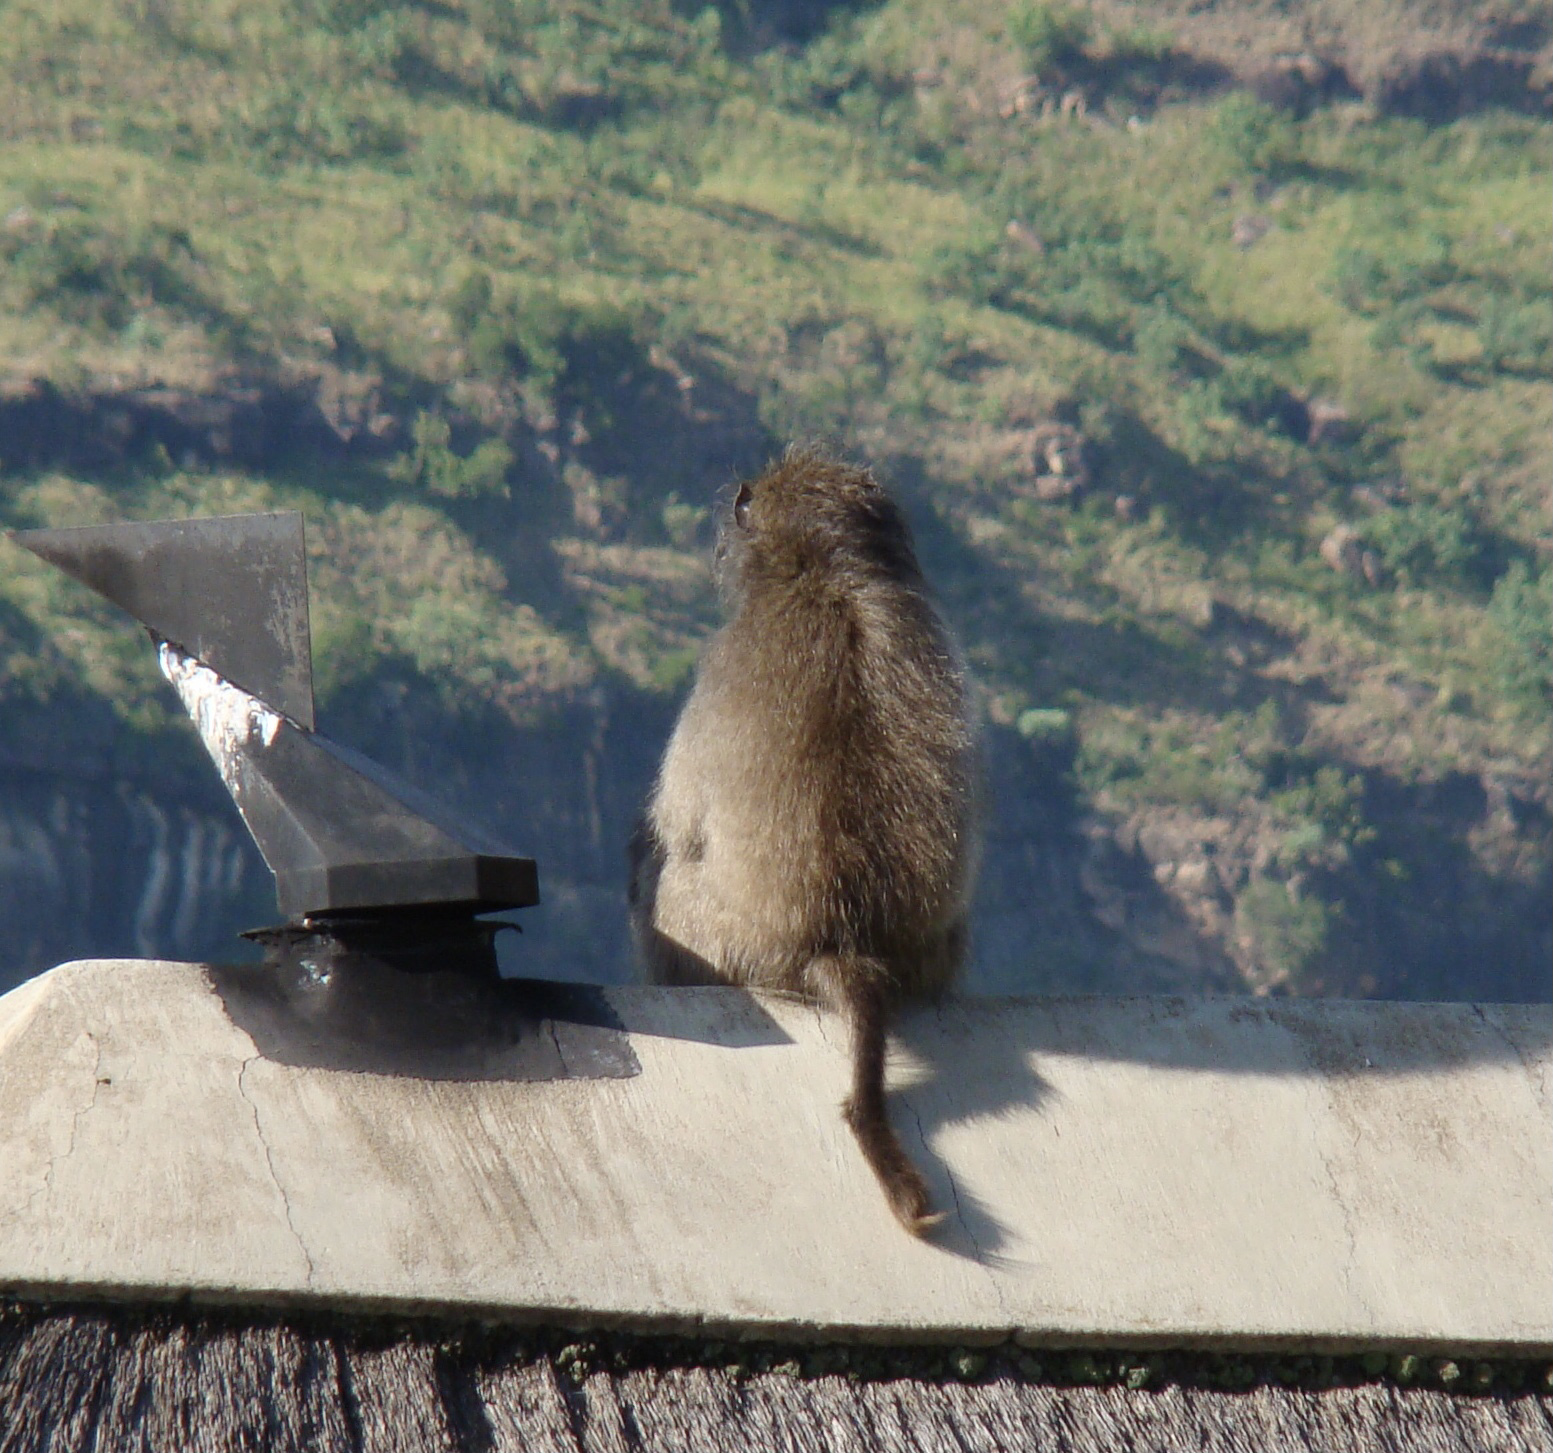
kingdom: Animalia
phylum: Chordata
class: Mammalia
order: Primates
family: Cercopithecidae
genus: Papio
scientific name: Papio ursinus
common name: Chacma baboon
